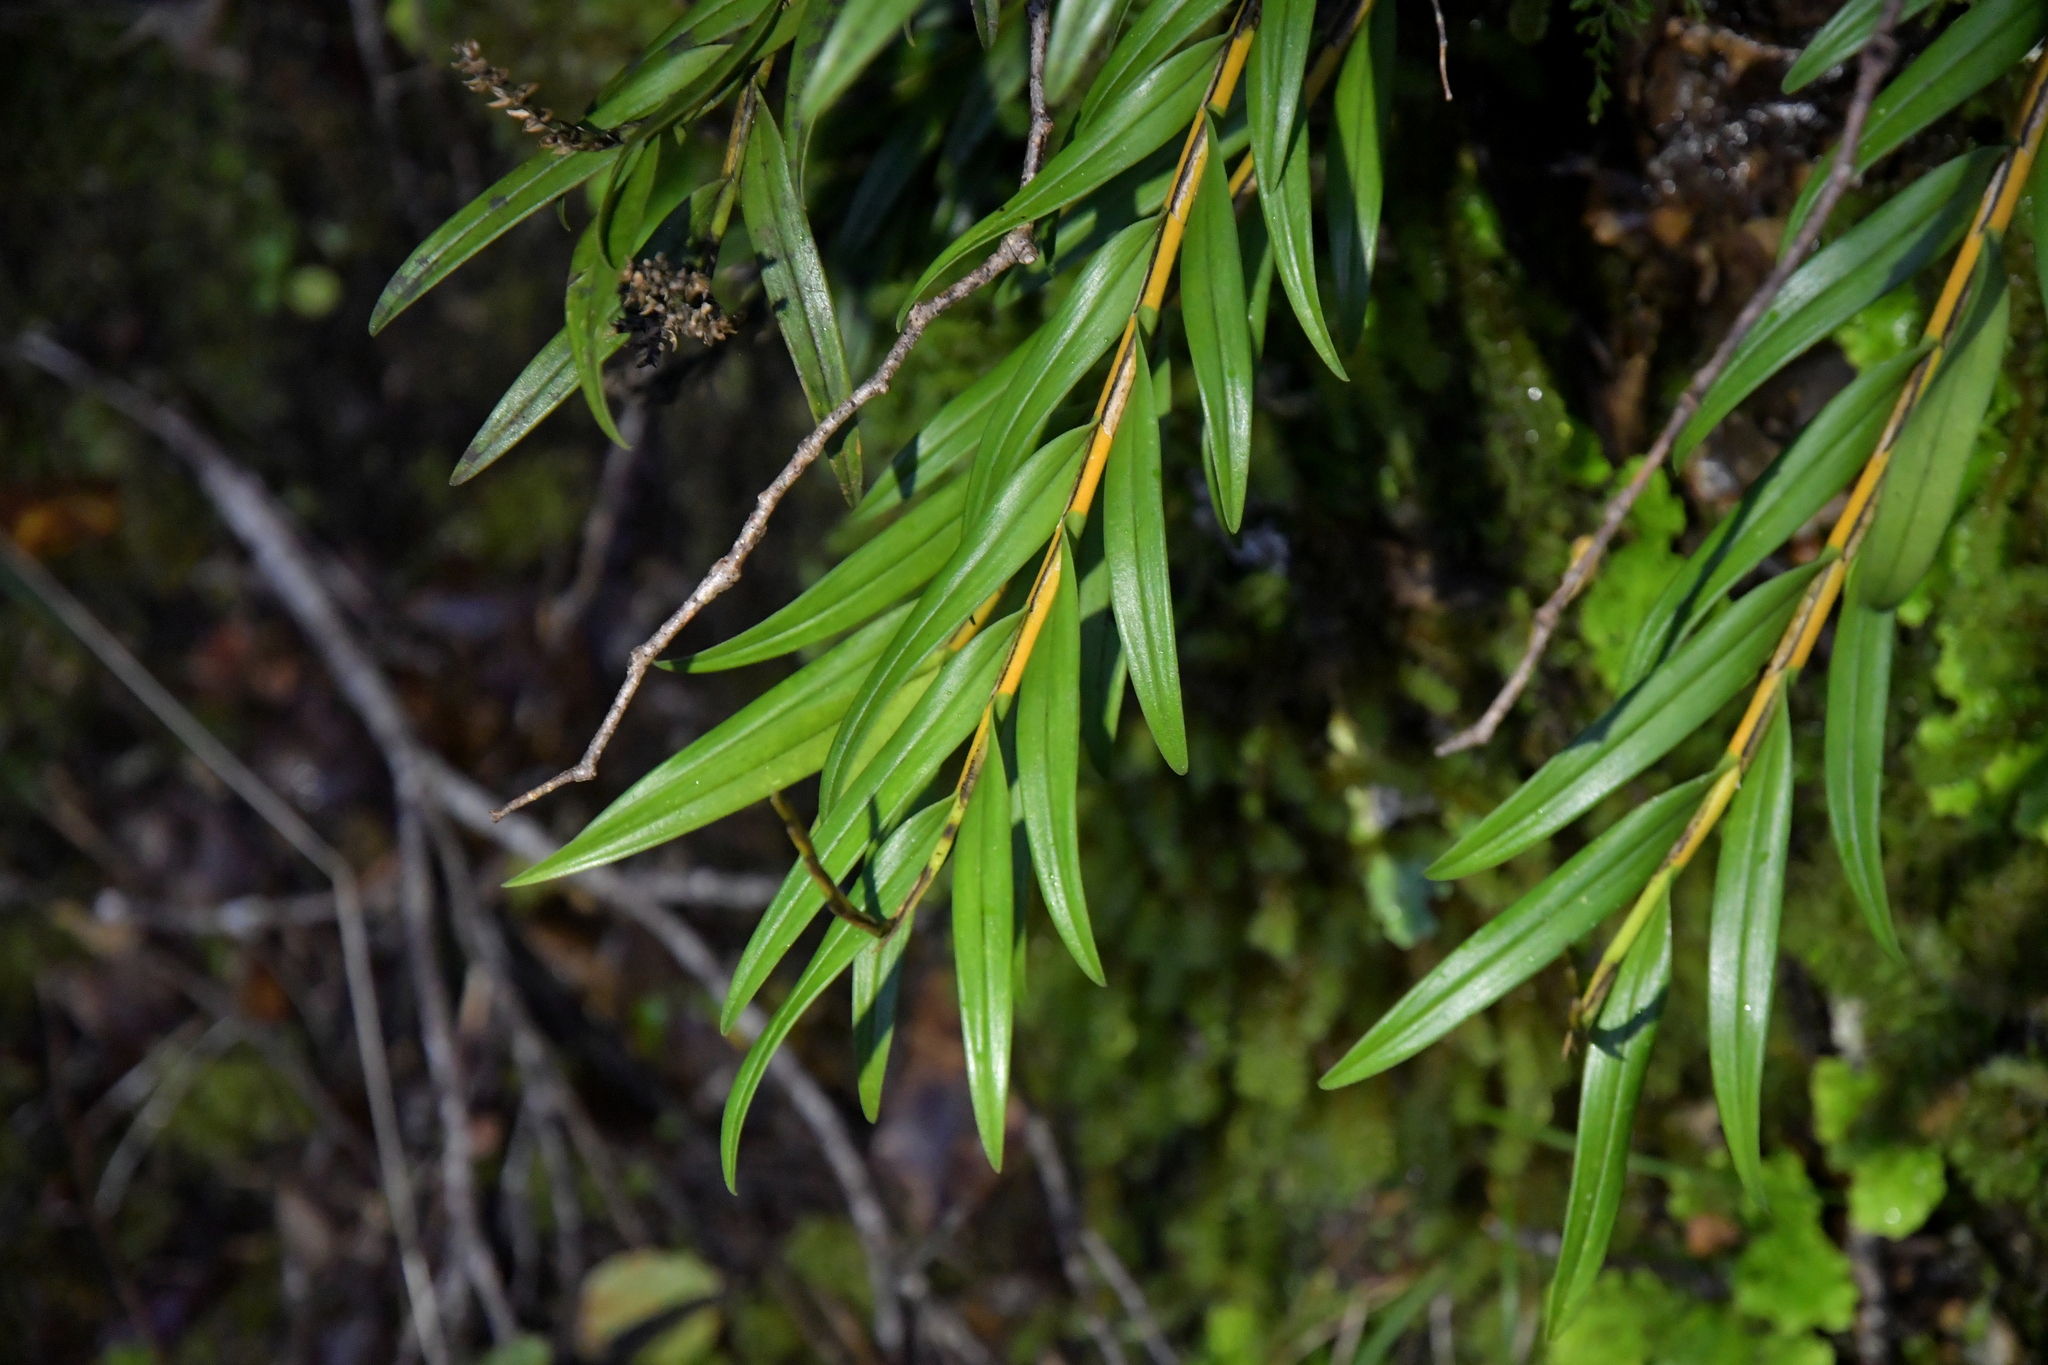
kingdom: Plantae
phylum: Tracheophyta
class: Liliopsida
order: Asparagales
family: Orchidaceae
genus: Earina
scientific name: Earina autumnalis
